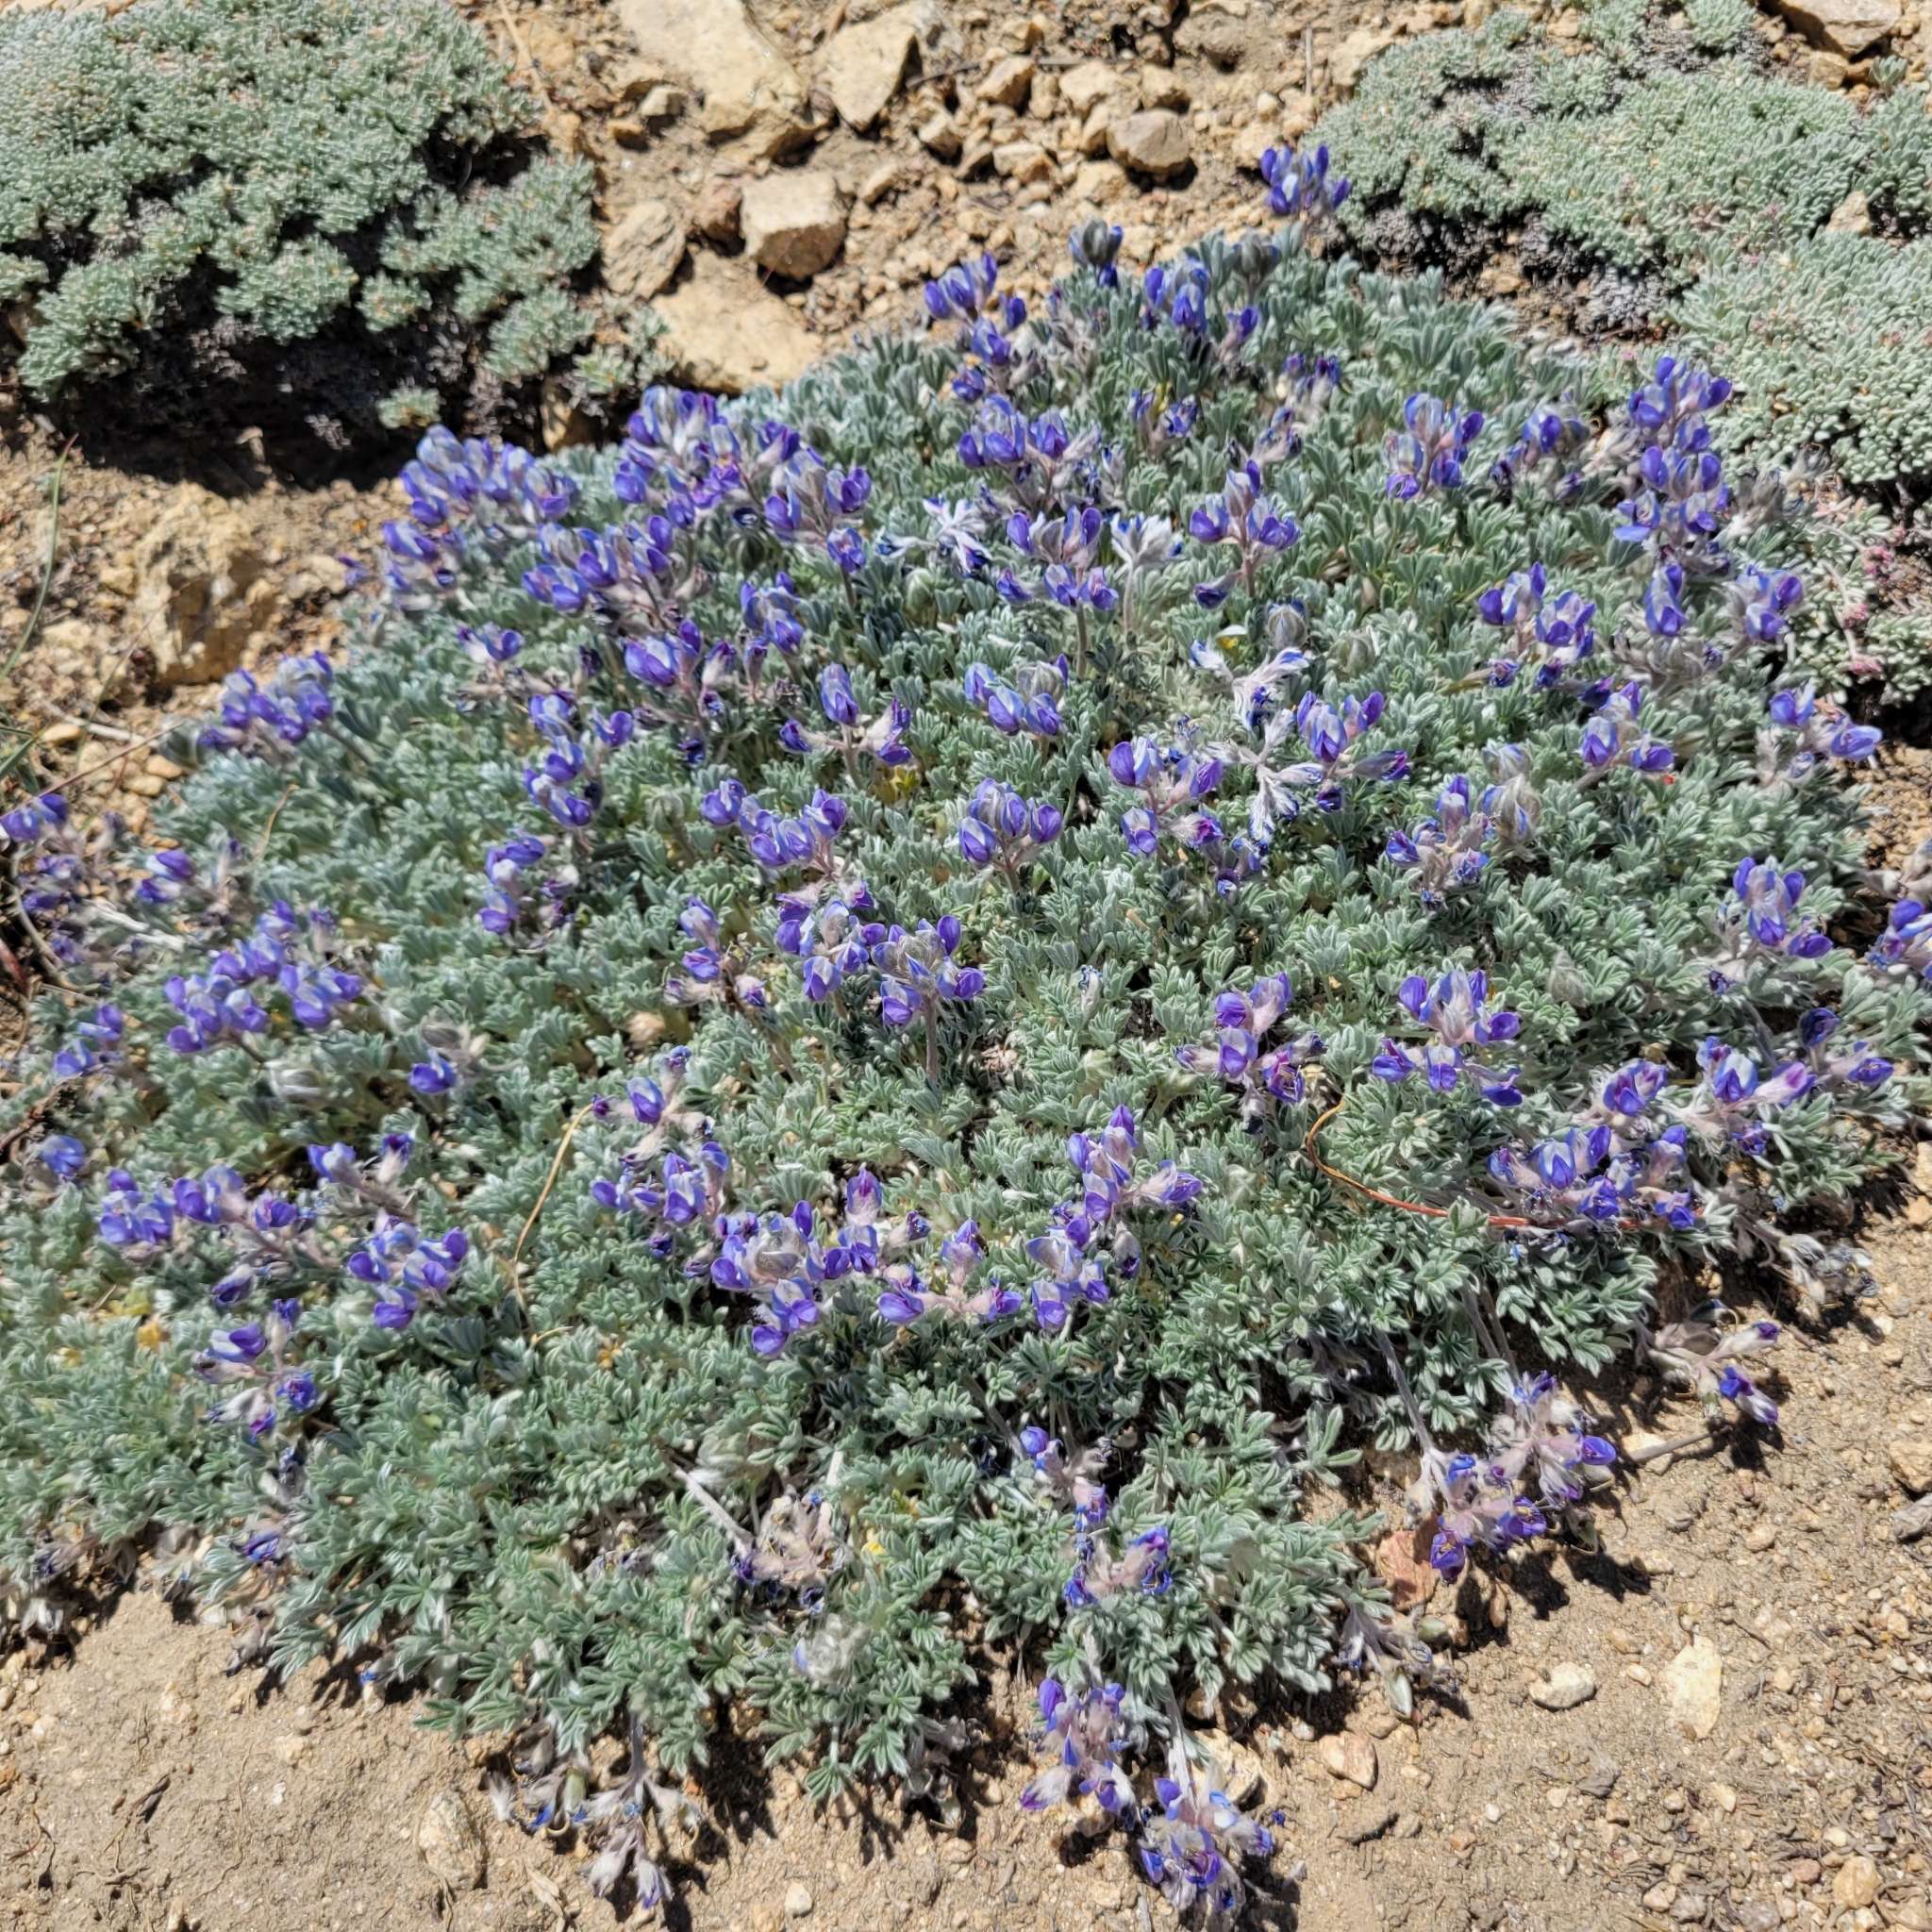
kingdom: Plantae
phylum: Tracheophyta
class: Magnoliopsida
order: Fabales
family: Fabaceae
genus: Lupinus
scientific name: Lupinus breweri
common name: Brewer's lupine
